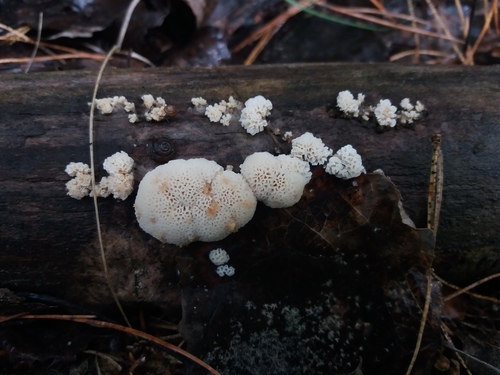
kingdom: Fungi
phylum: Basidiomycota
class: Agaricomycetes
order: Polyporales
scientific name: Polyporales
